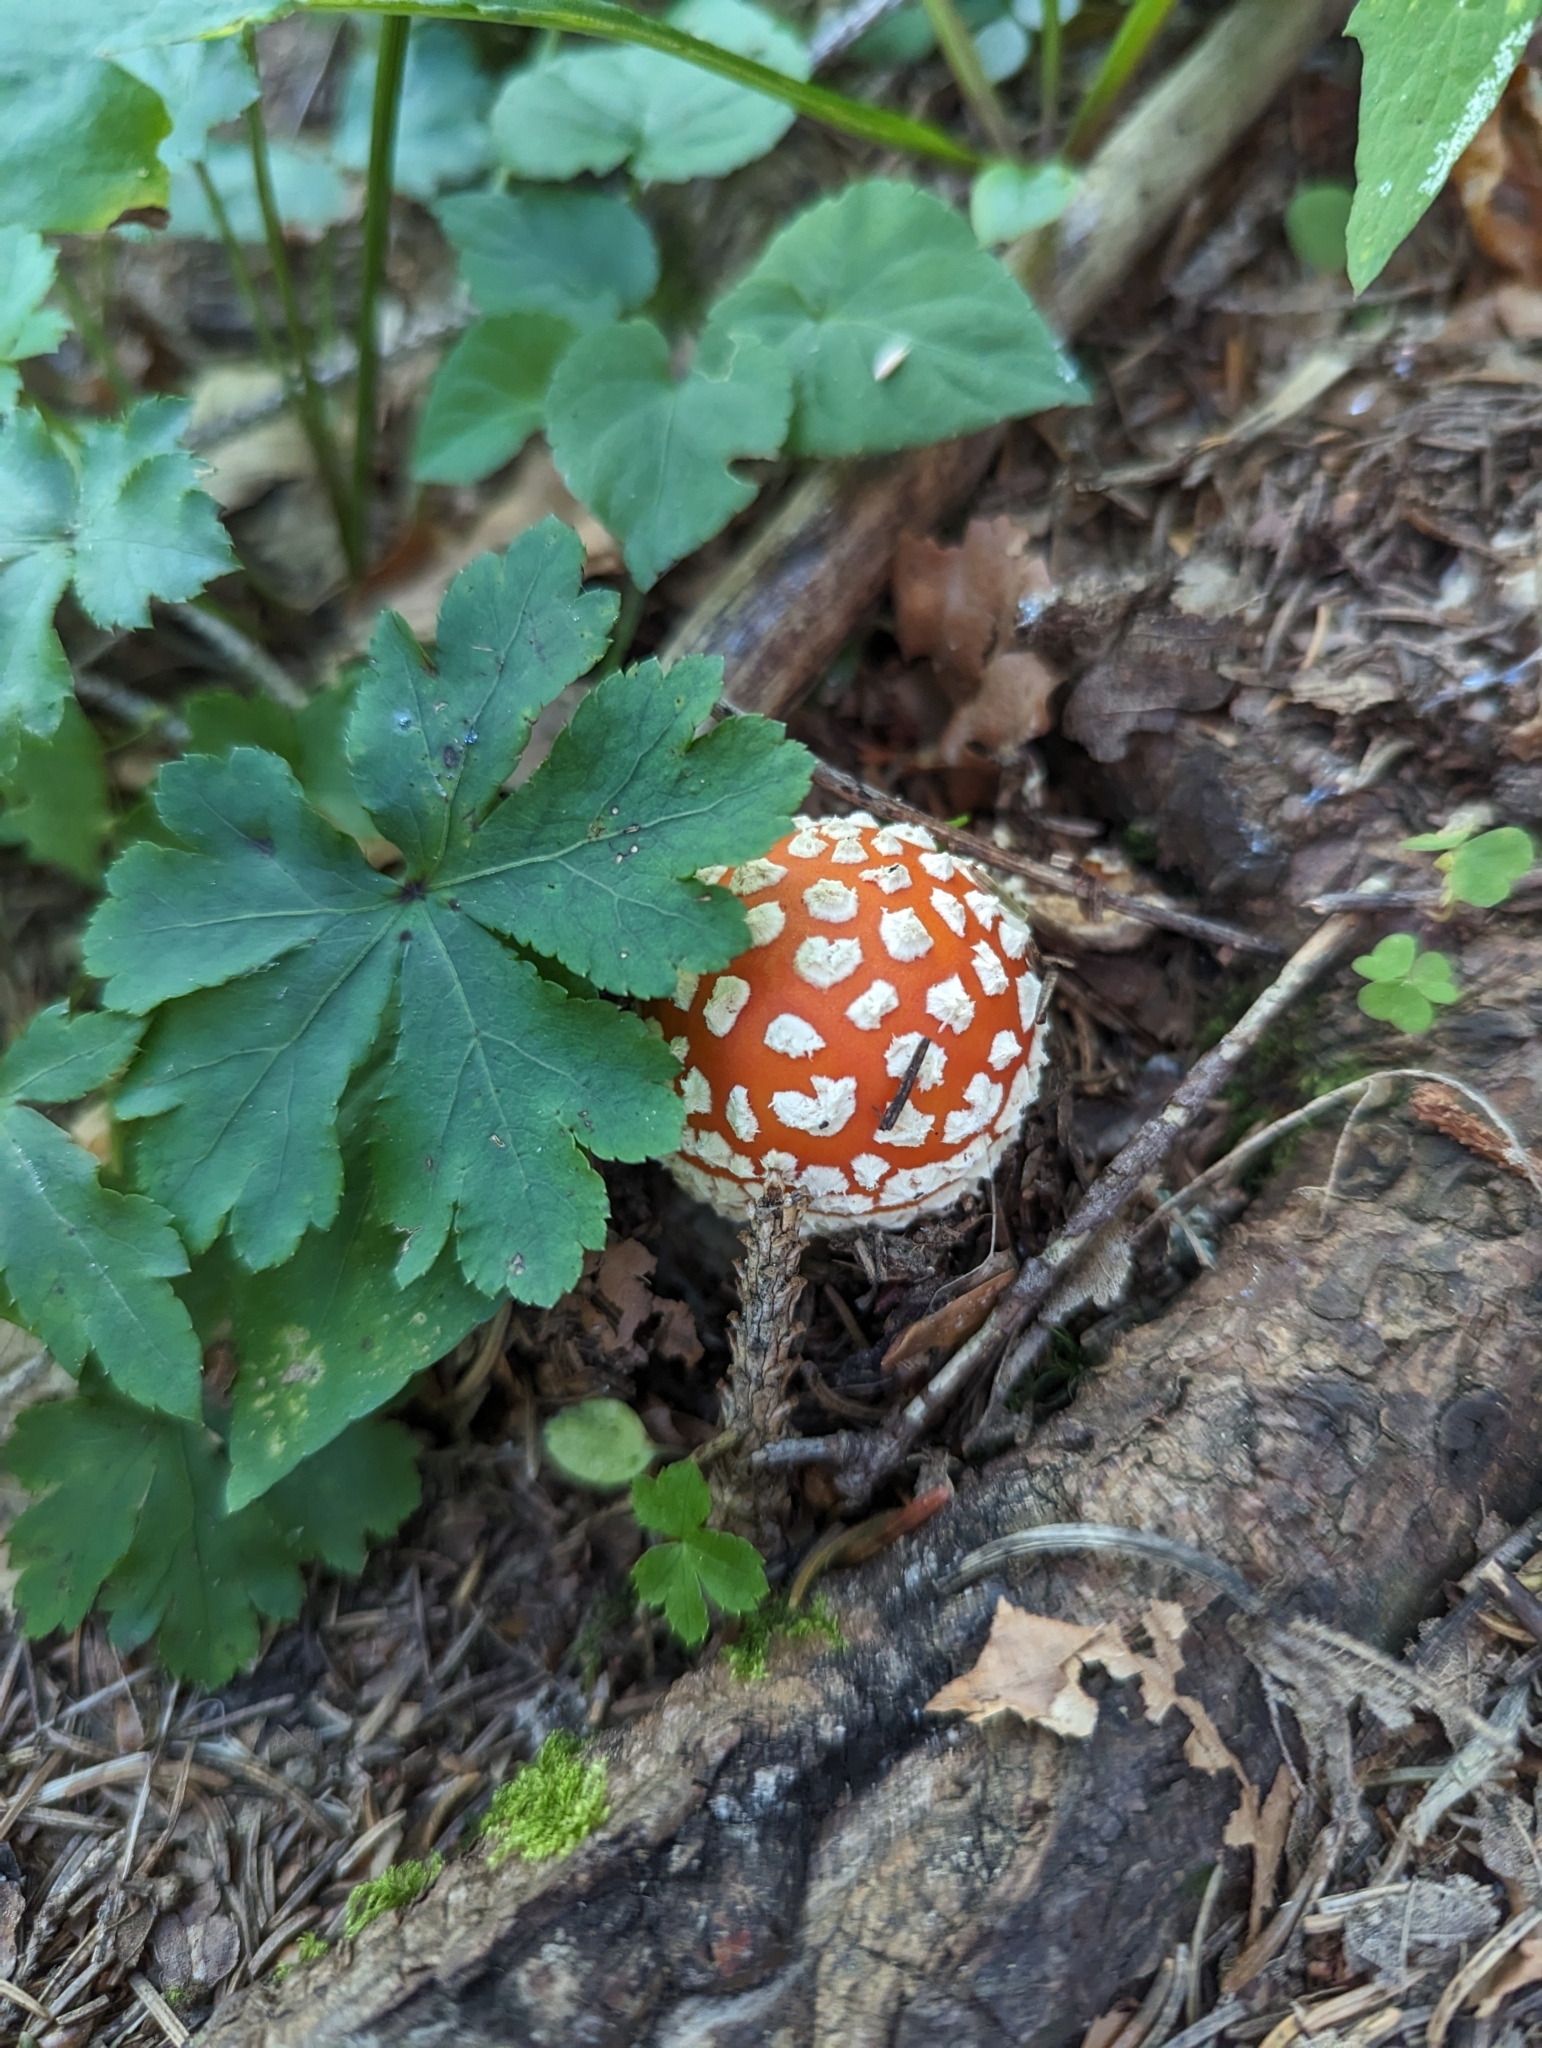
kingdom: Fungi
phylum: Basidiomycota
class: Agaricomycetes
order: Agaricales
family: Amanitaceae
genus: Amanita
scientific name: Amanita muscaria
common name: Fly agaric
